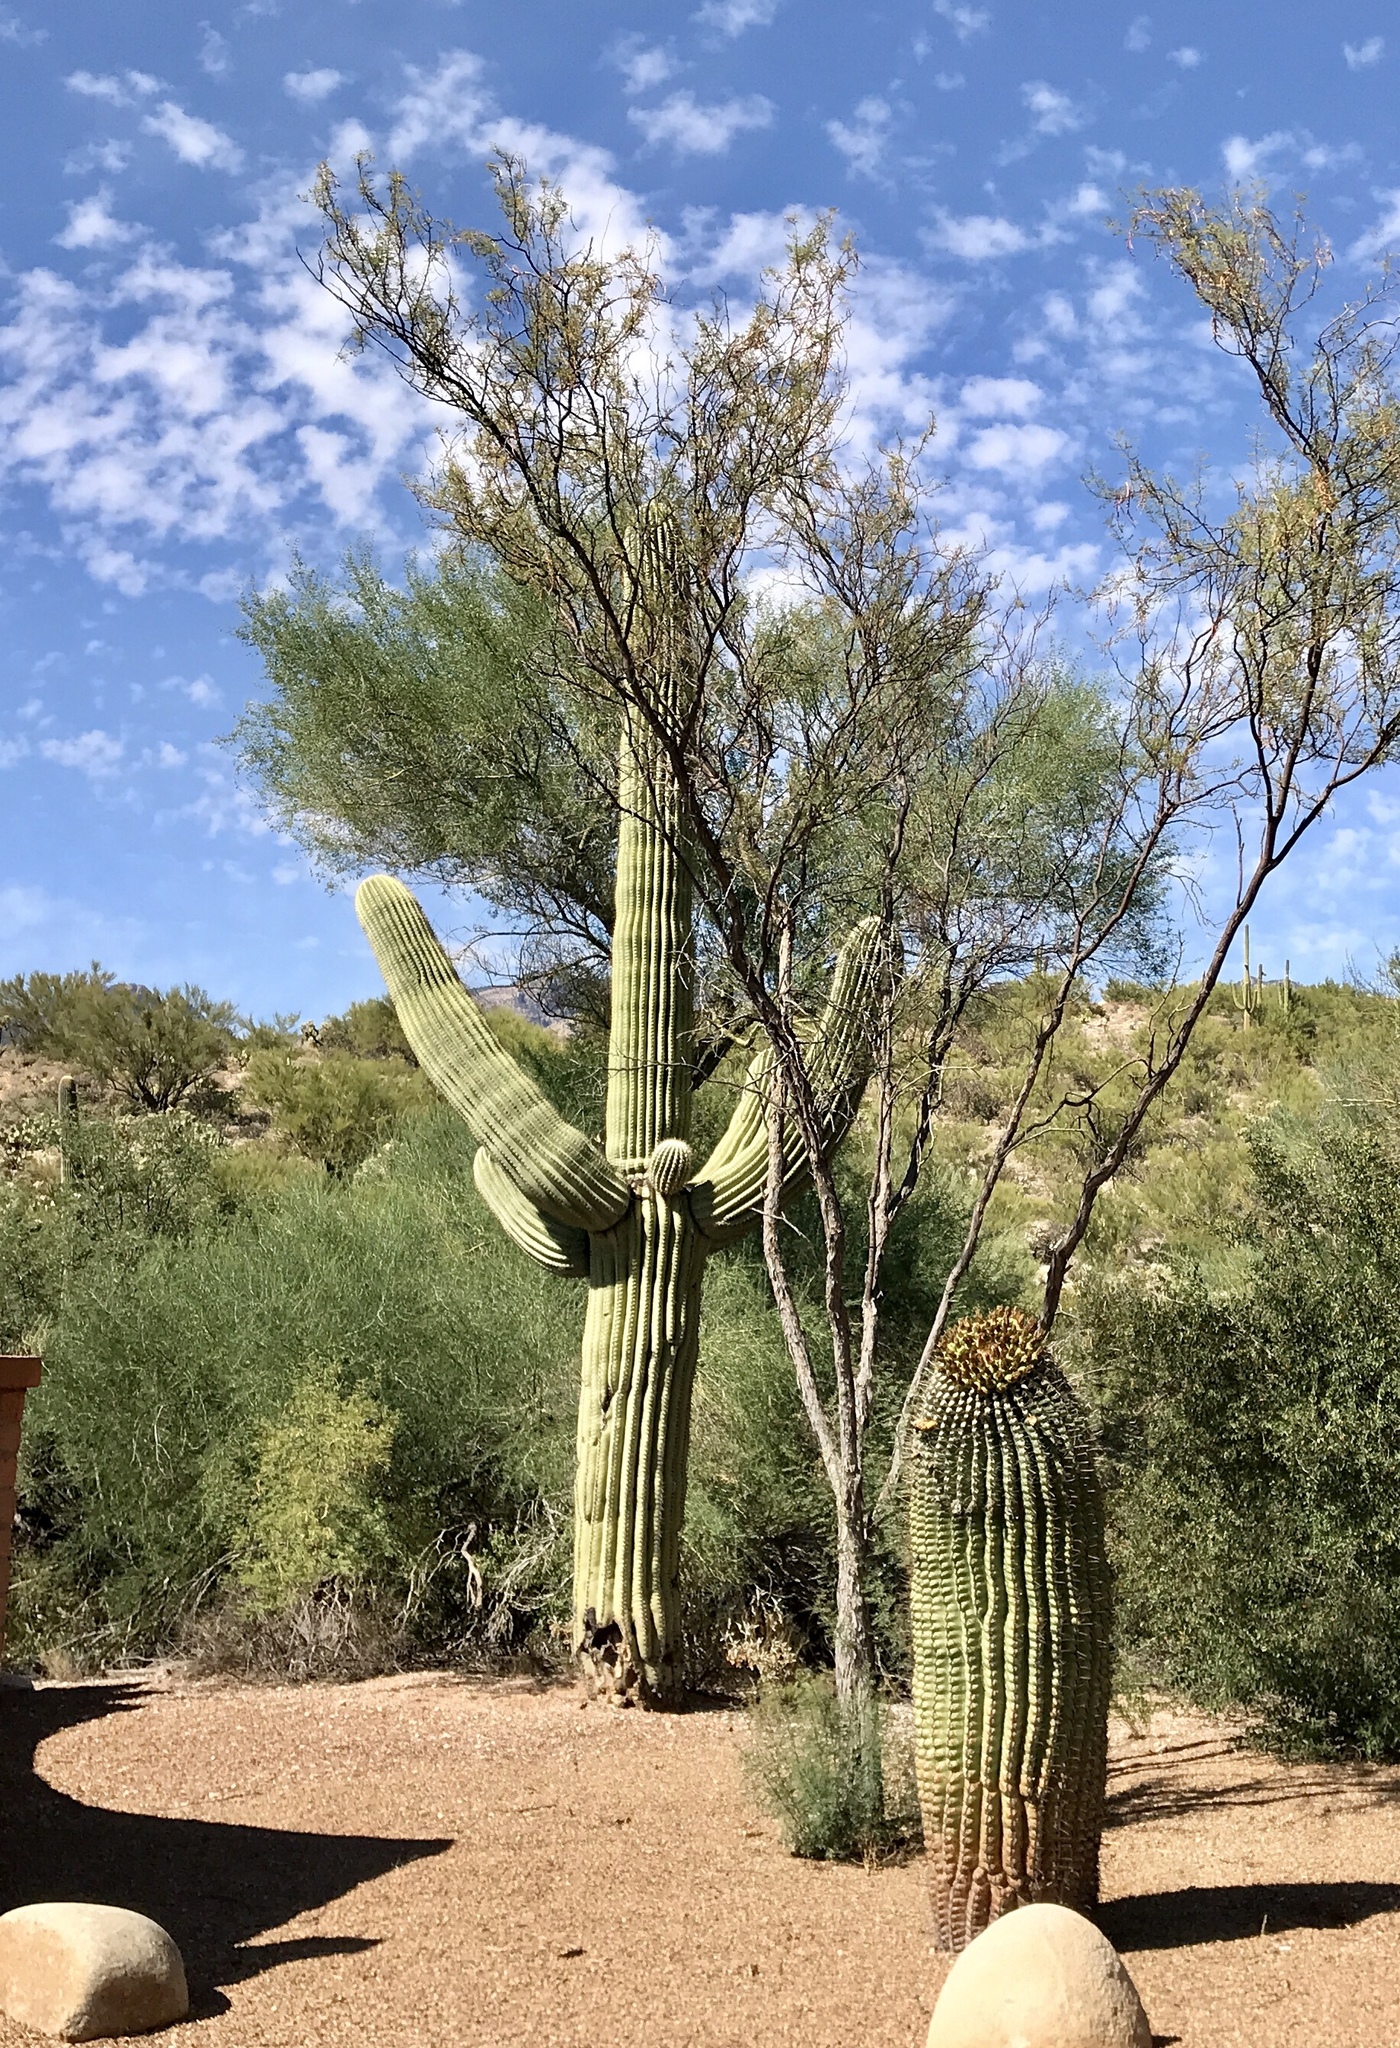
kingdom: Plantae
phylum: Tracheophyta
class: Magnoliopsida
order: Caryophyllales
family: Cactaceae
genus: Carnegiea
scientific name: Carnegiea gigantea
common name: Saguaro
